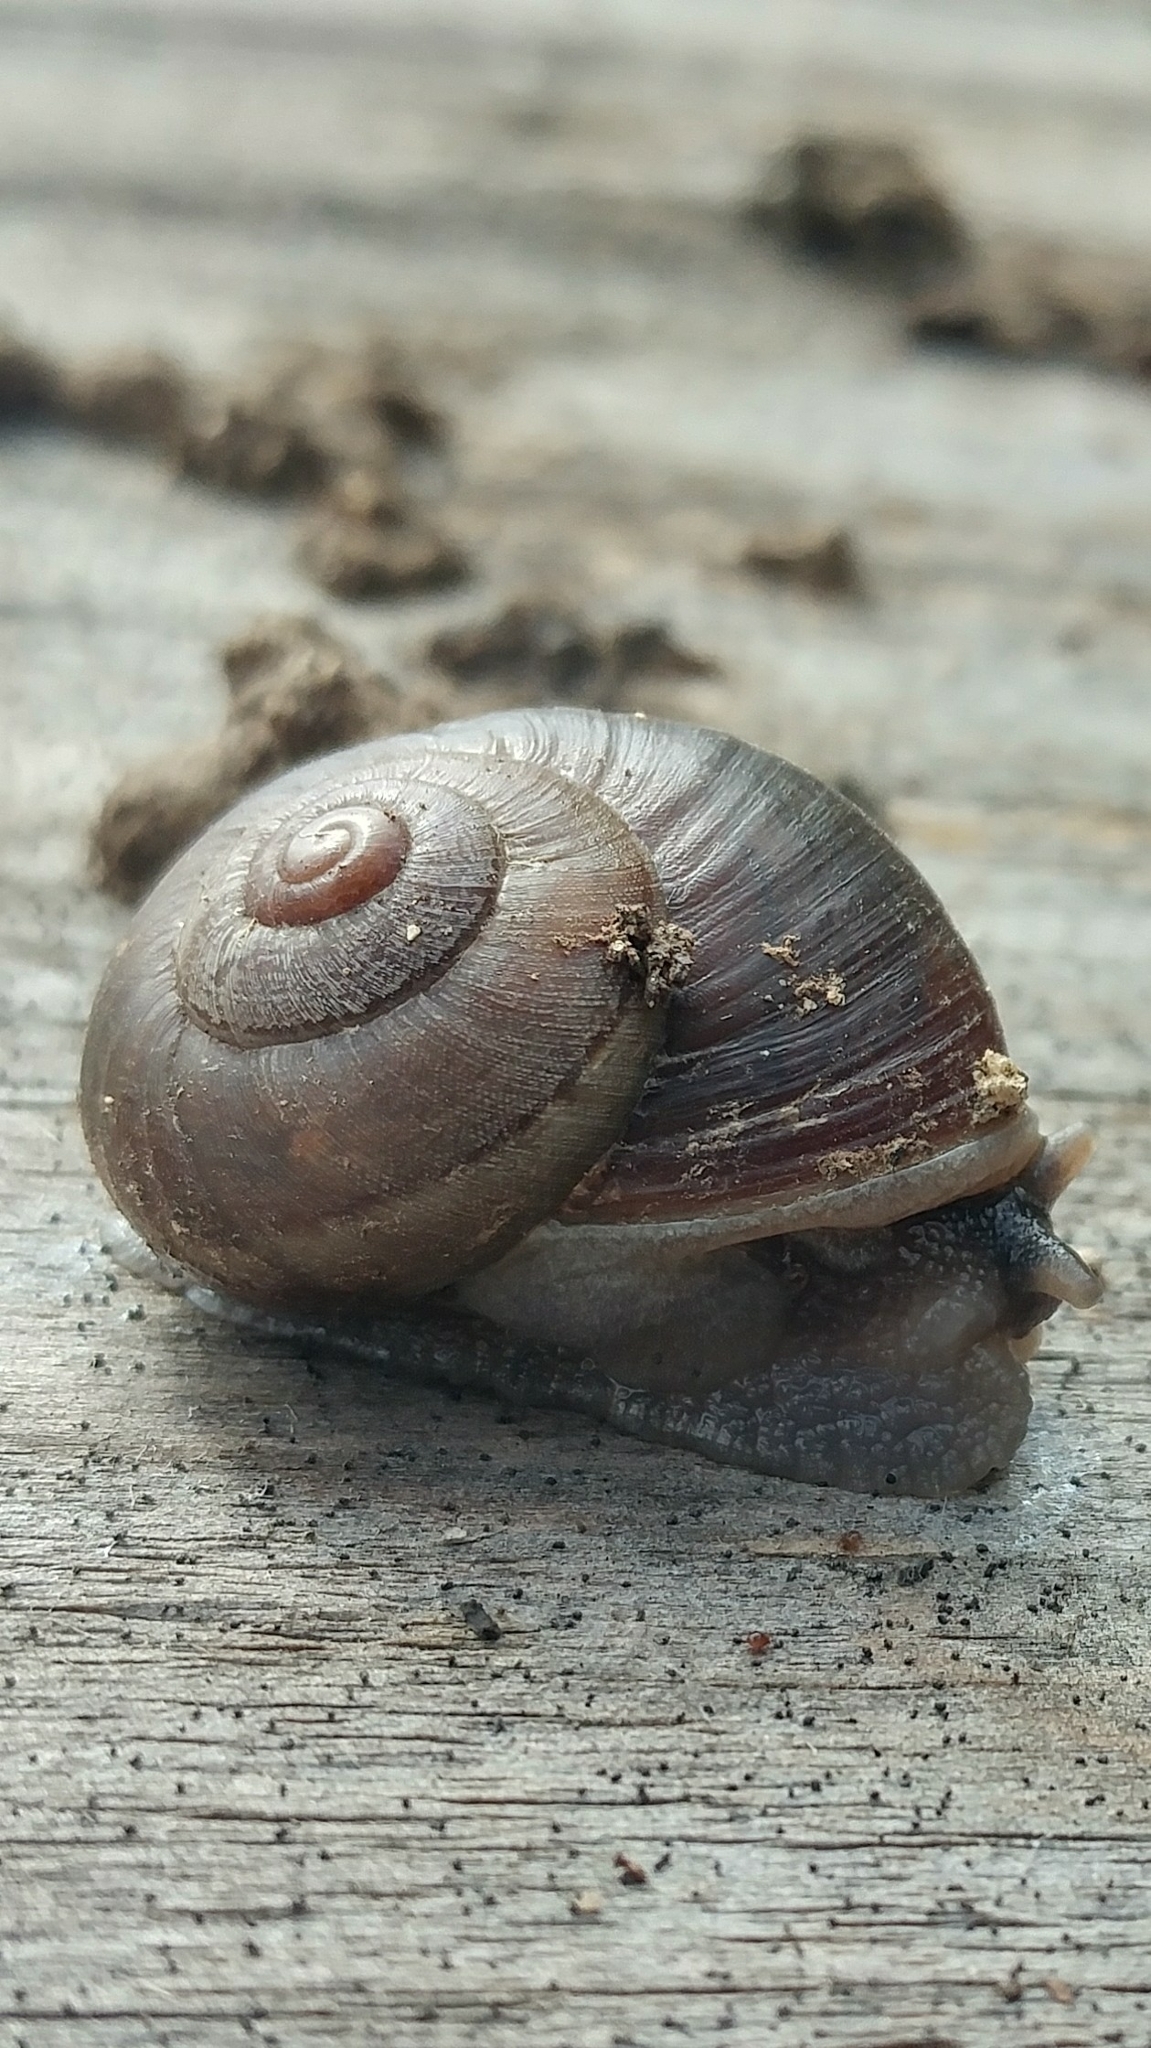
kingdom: Animalia
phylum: Mollusca
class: Gastropoda
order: Stylommatophora
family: Xanthonychidae
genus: Xerarionta
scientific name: Xerarionta redimita
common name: Wreathed cactus snail
